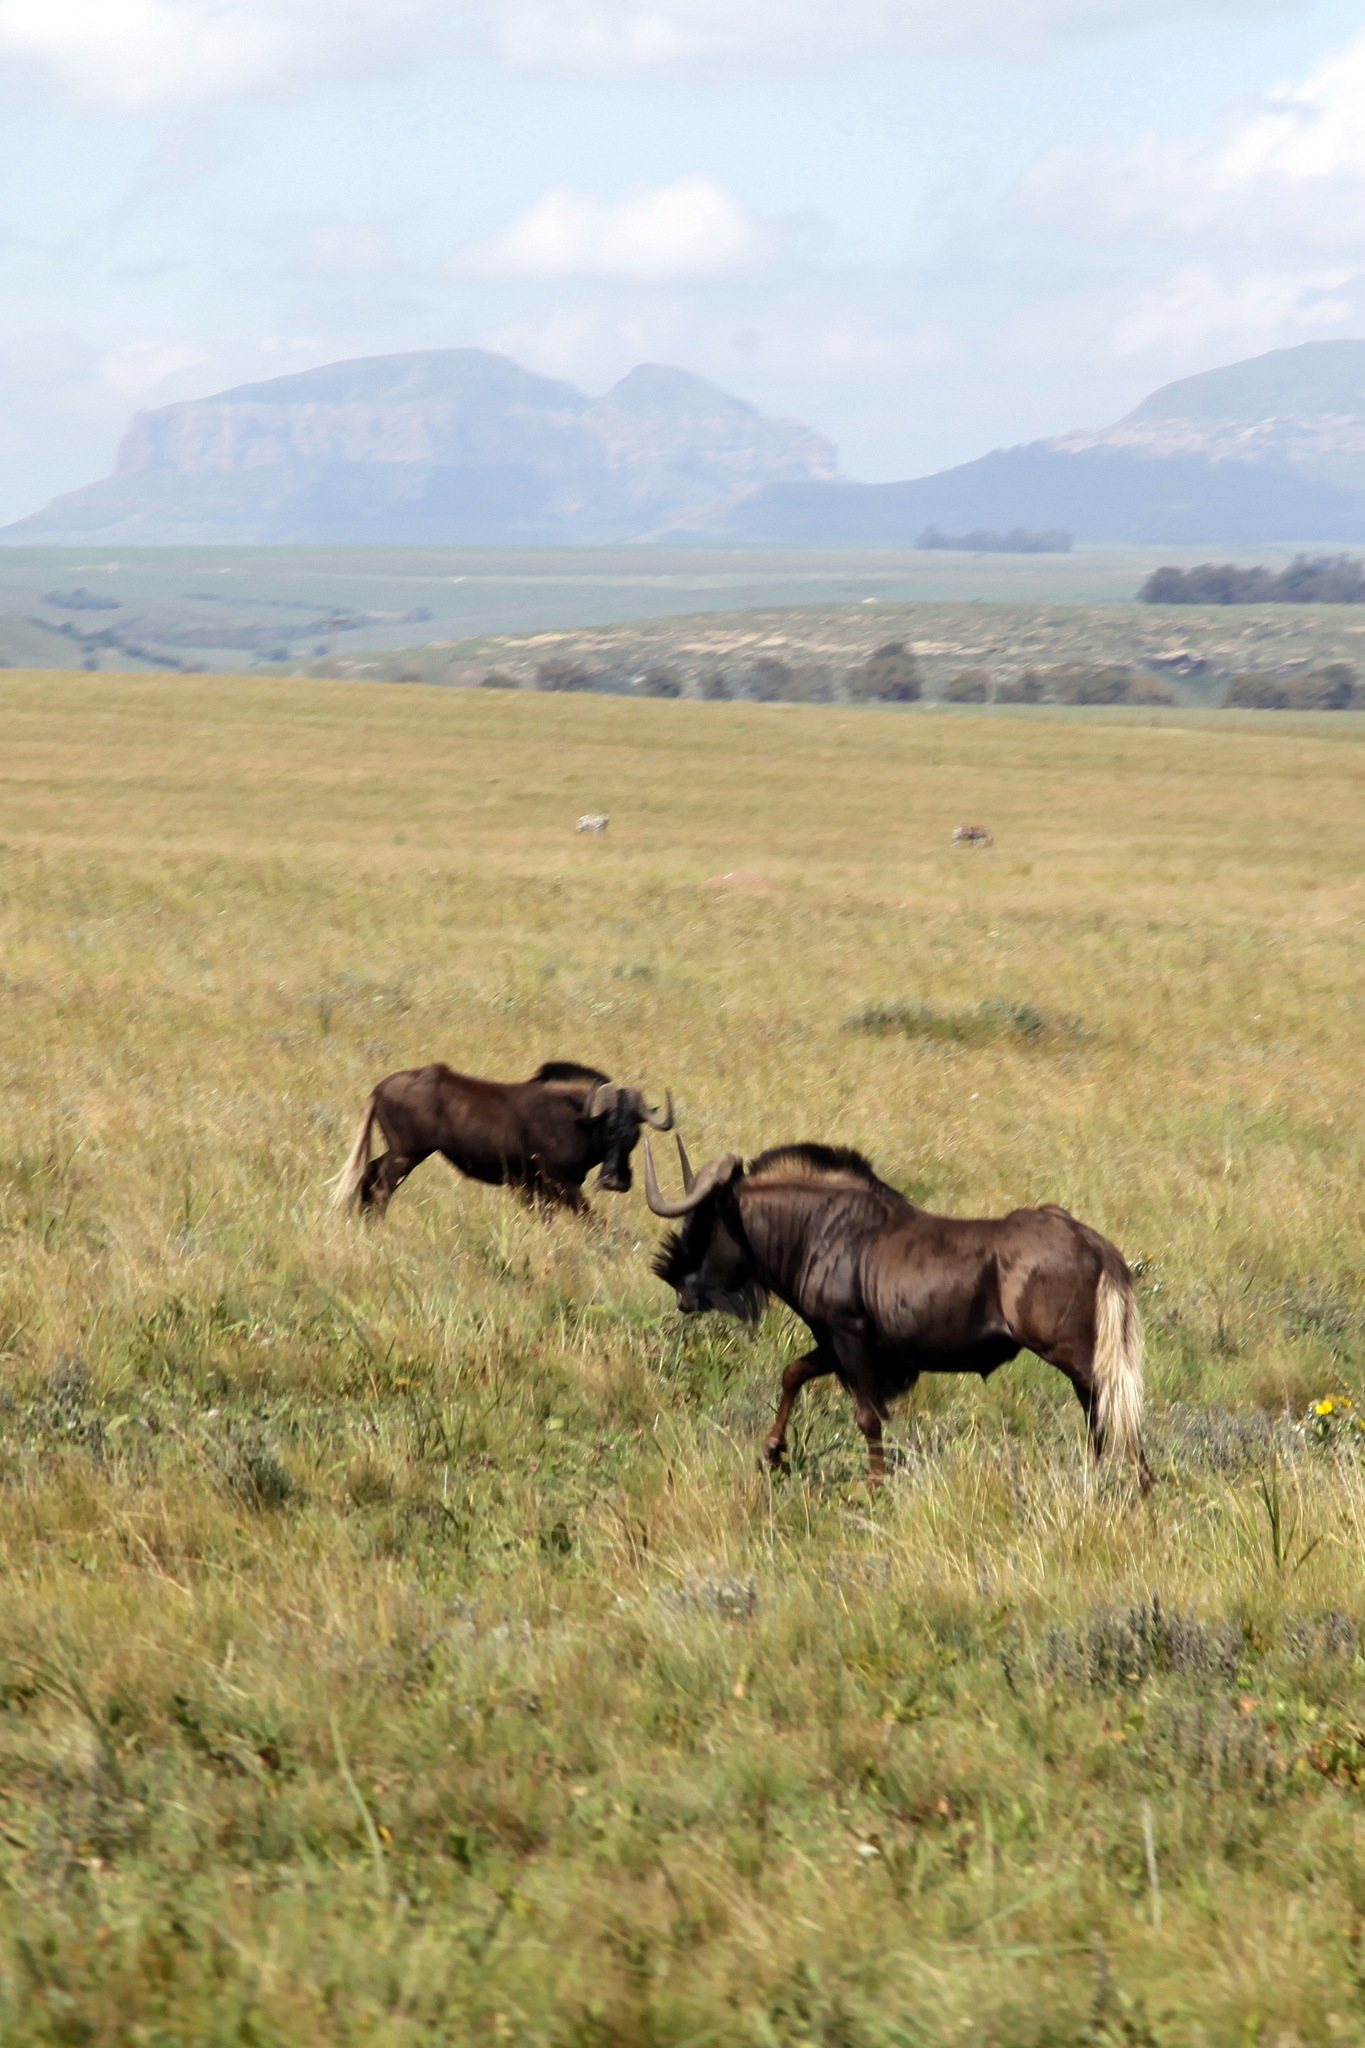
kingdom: Animalia
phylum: Chordata
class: Mammalia
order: Artiodactyla
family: Bovidae
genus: Connochaetes
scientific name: Connochaetes gnou
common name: Black wildebeest
